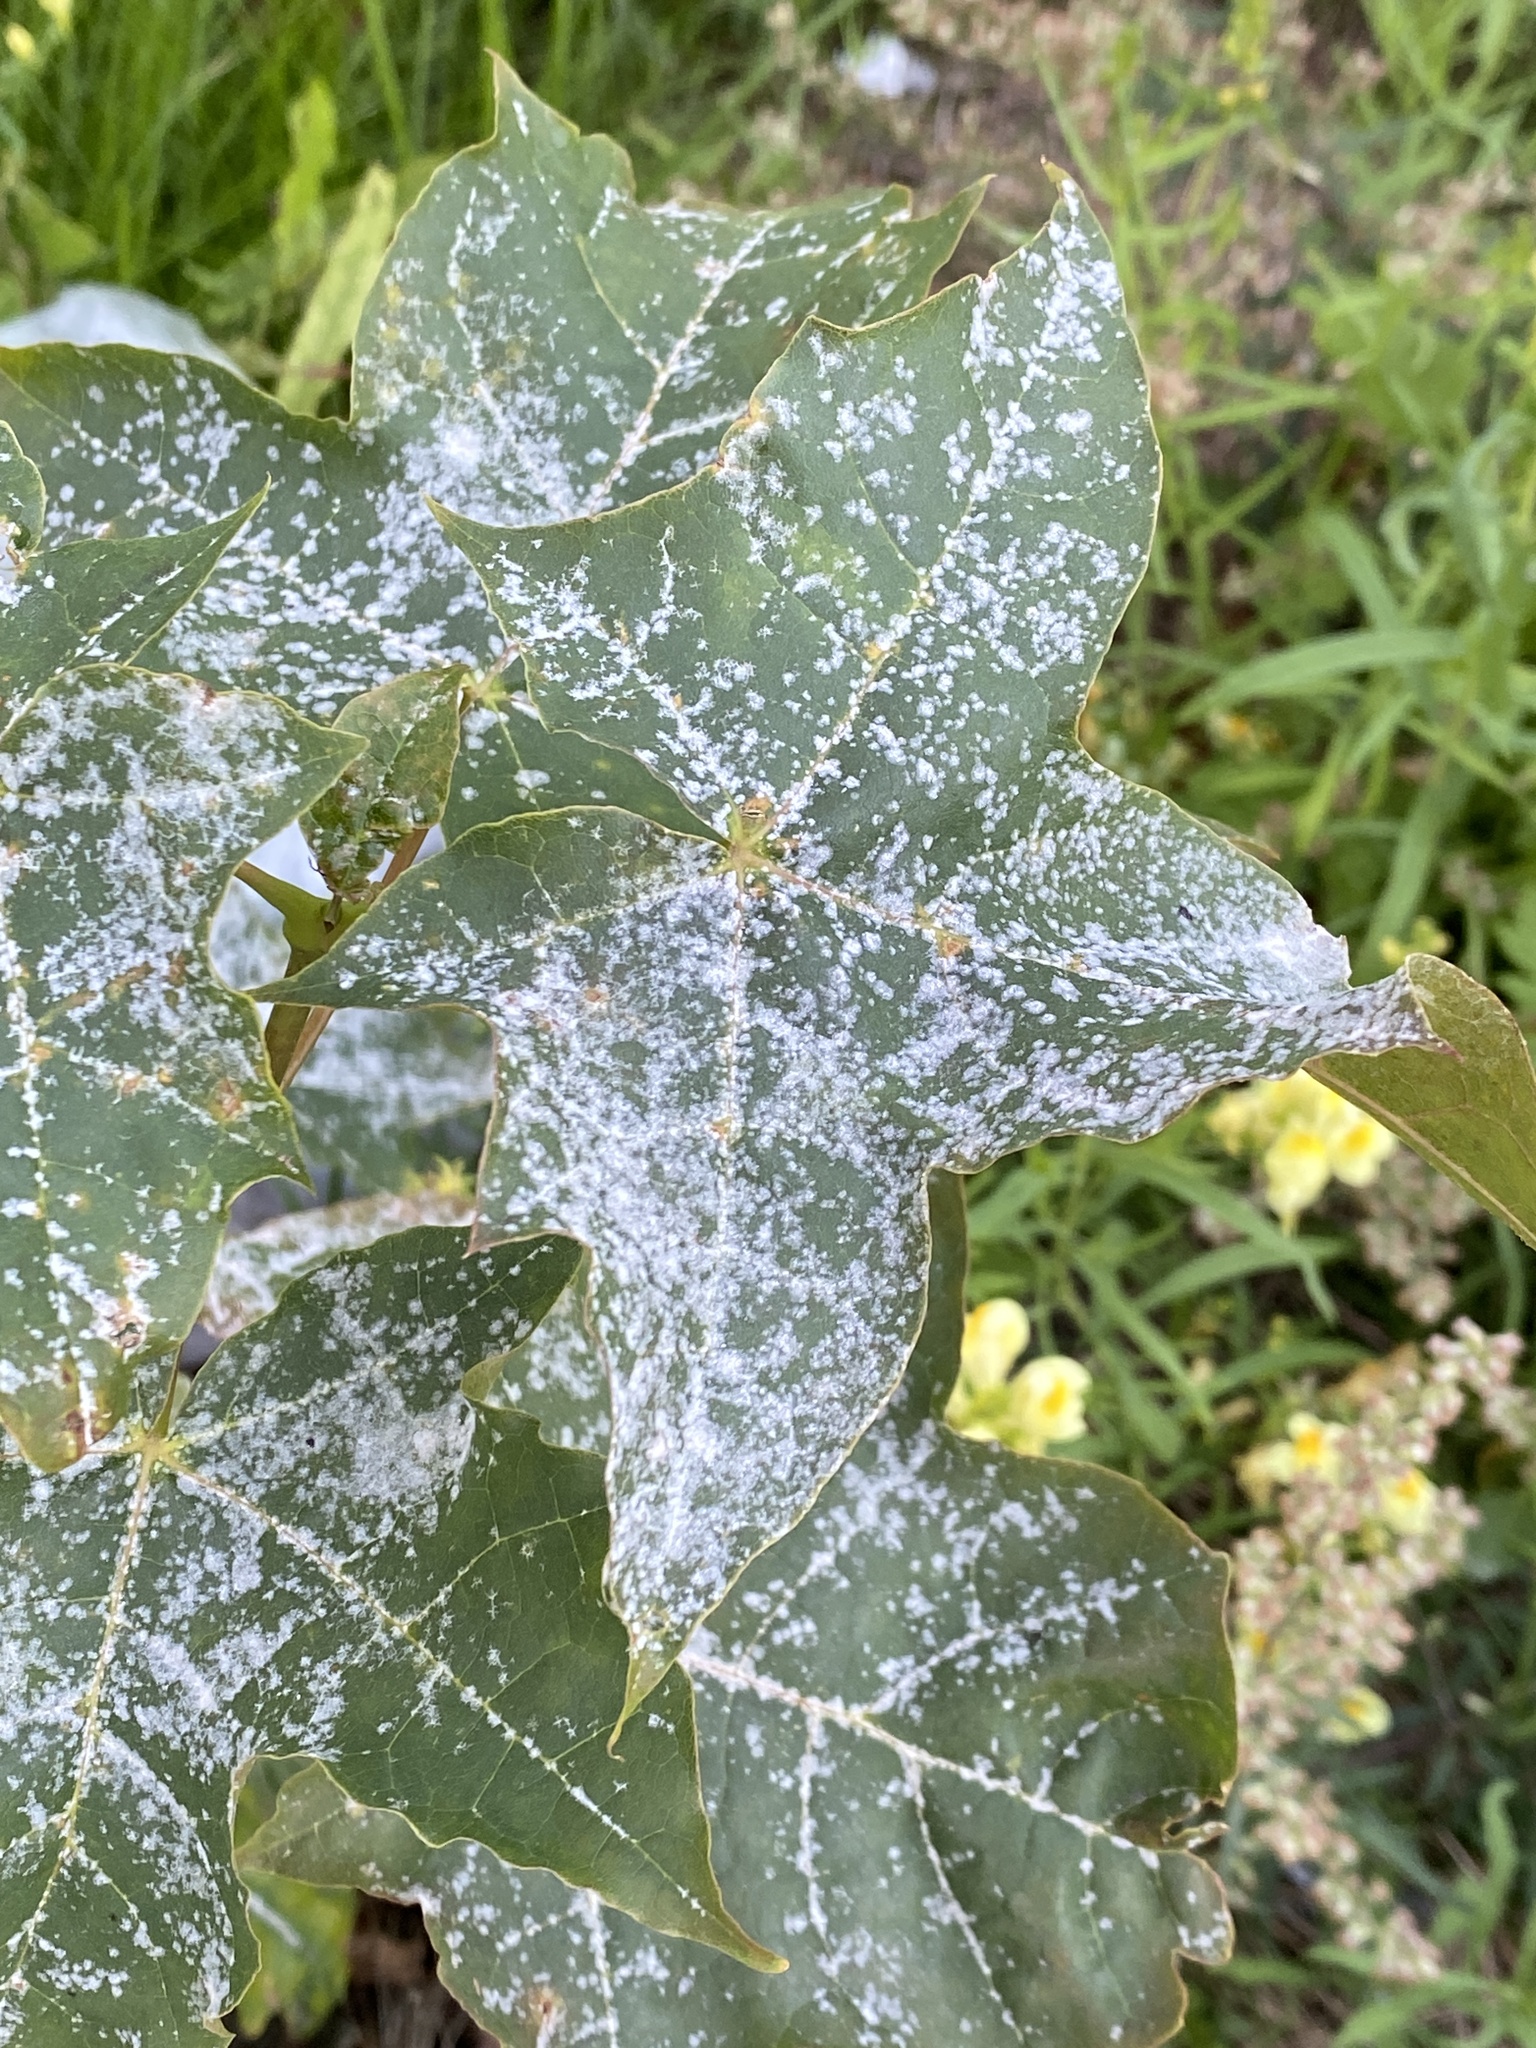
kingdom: Fungi
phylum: Ascomycota
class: Leotiomycetes
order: Helotiales
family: Erysiphaceae
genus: Sawadaea
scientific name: Sawadaea tulasnei
